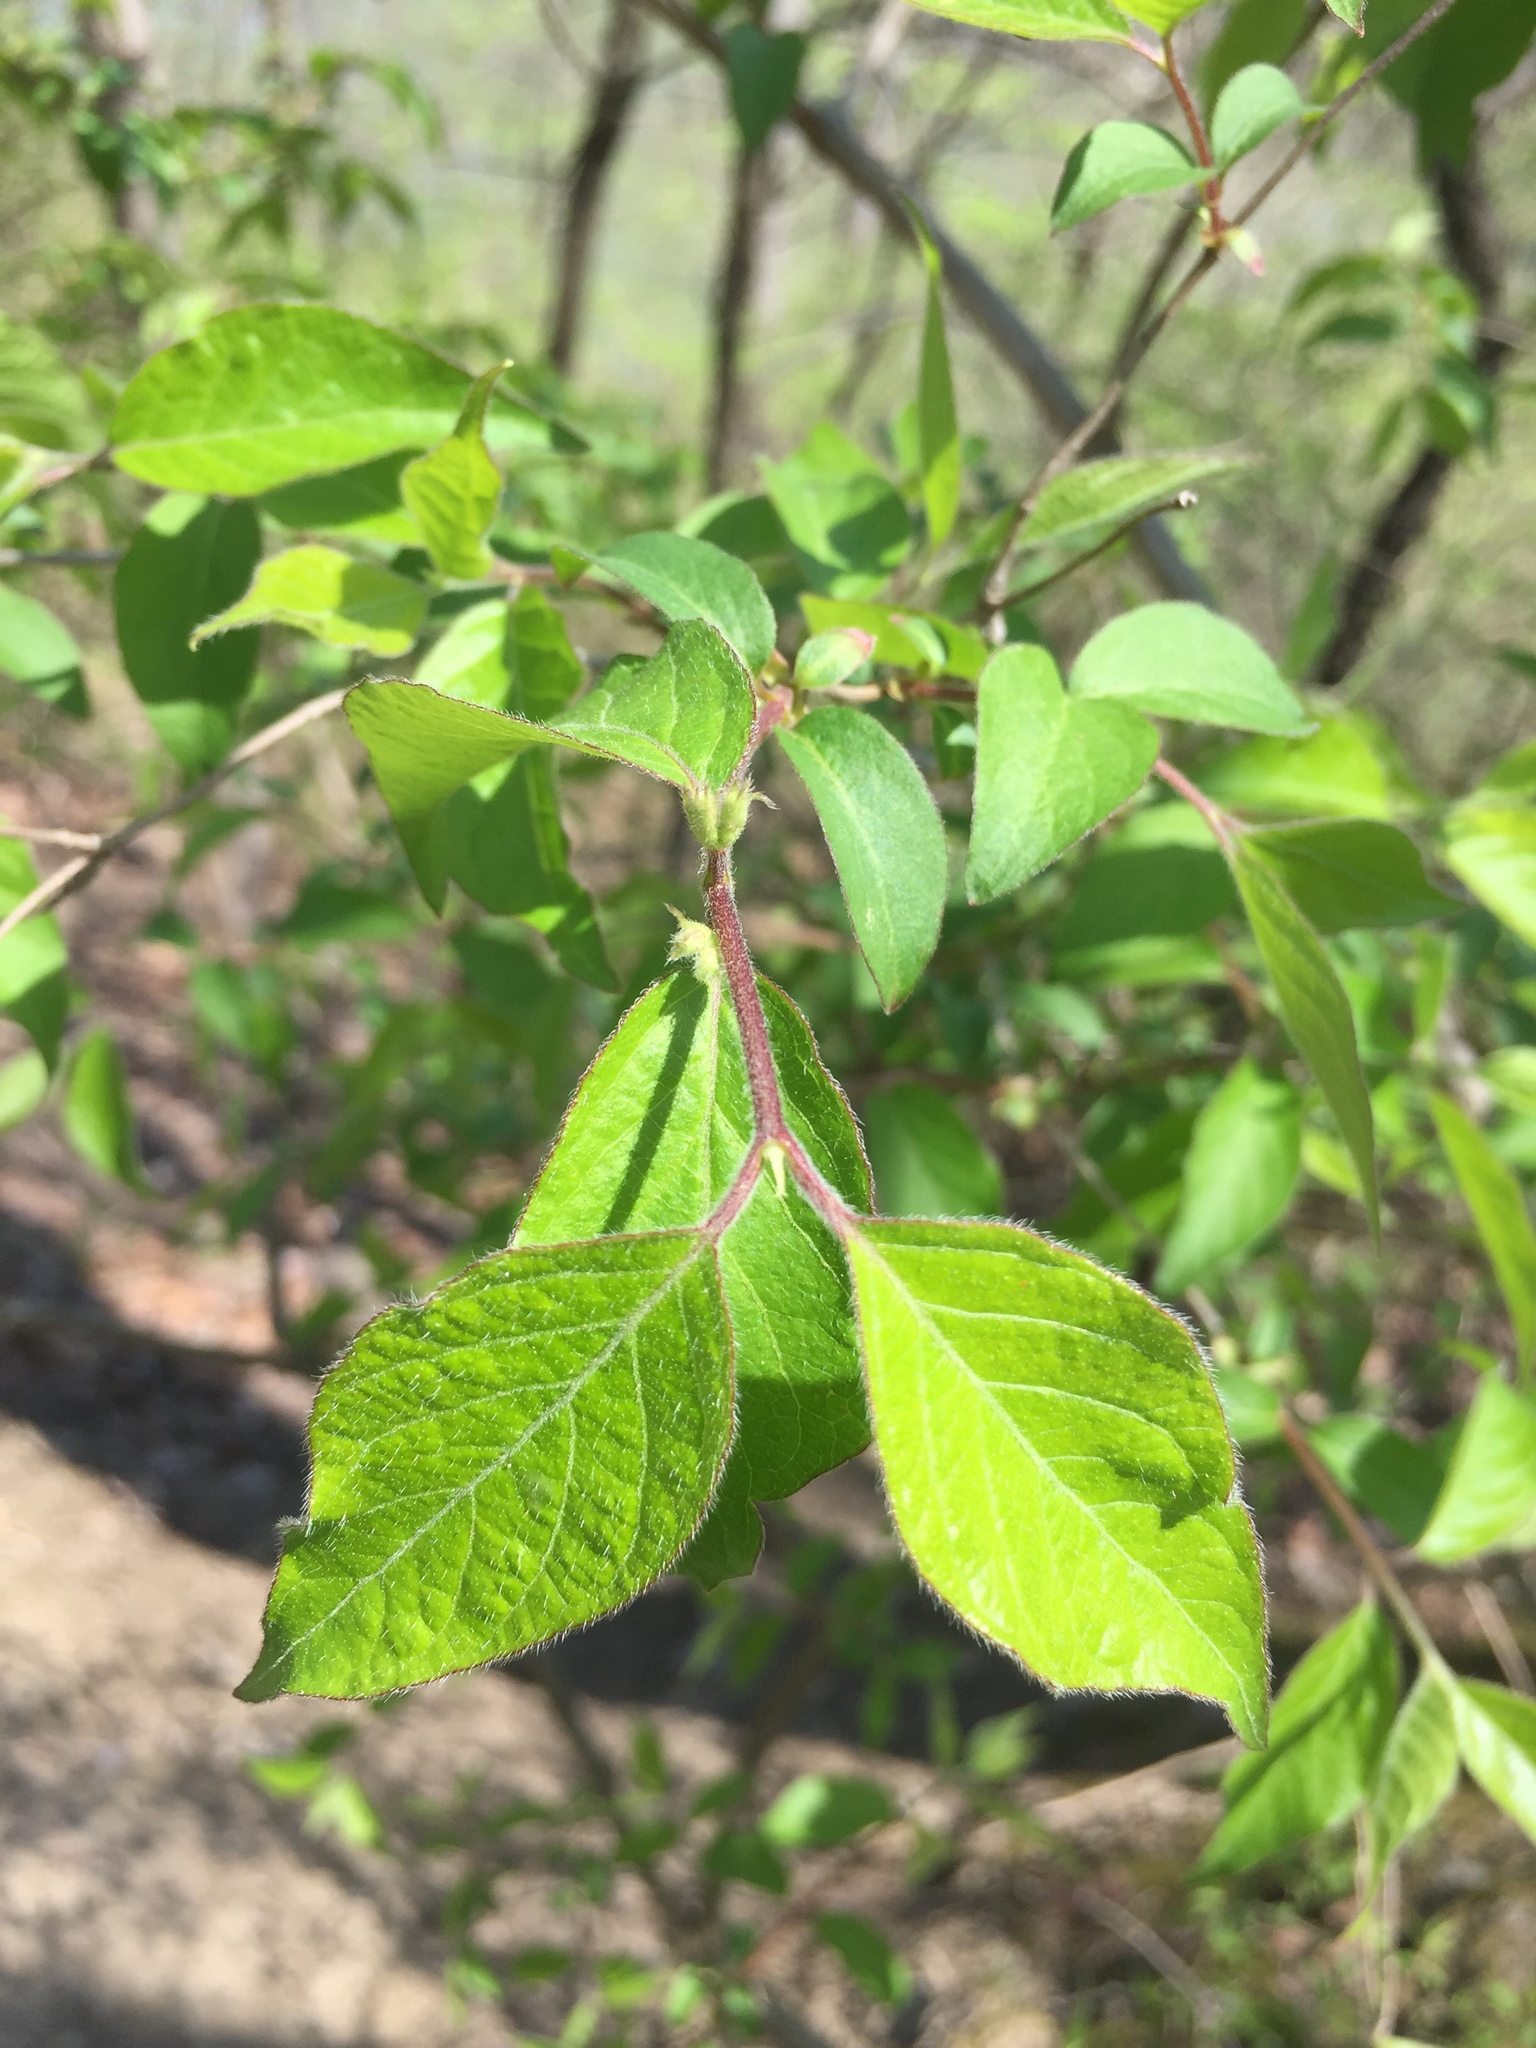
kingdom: Plantae
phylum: Tracheophyta
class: Magnoliopsida
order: Dipsacales
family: Caprifoliaceae
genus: Lonicera
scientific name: Lonicera maackii
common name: Amur honeysuckle
